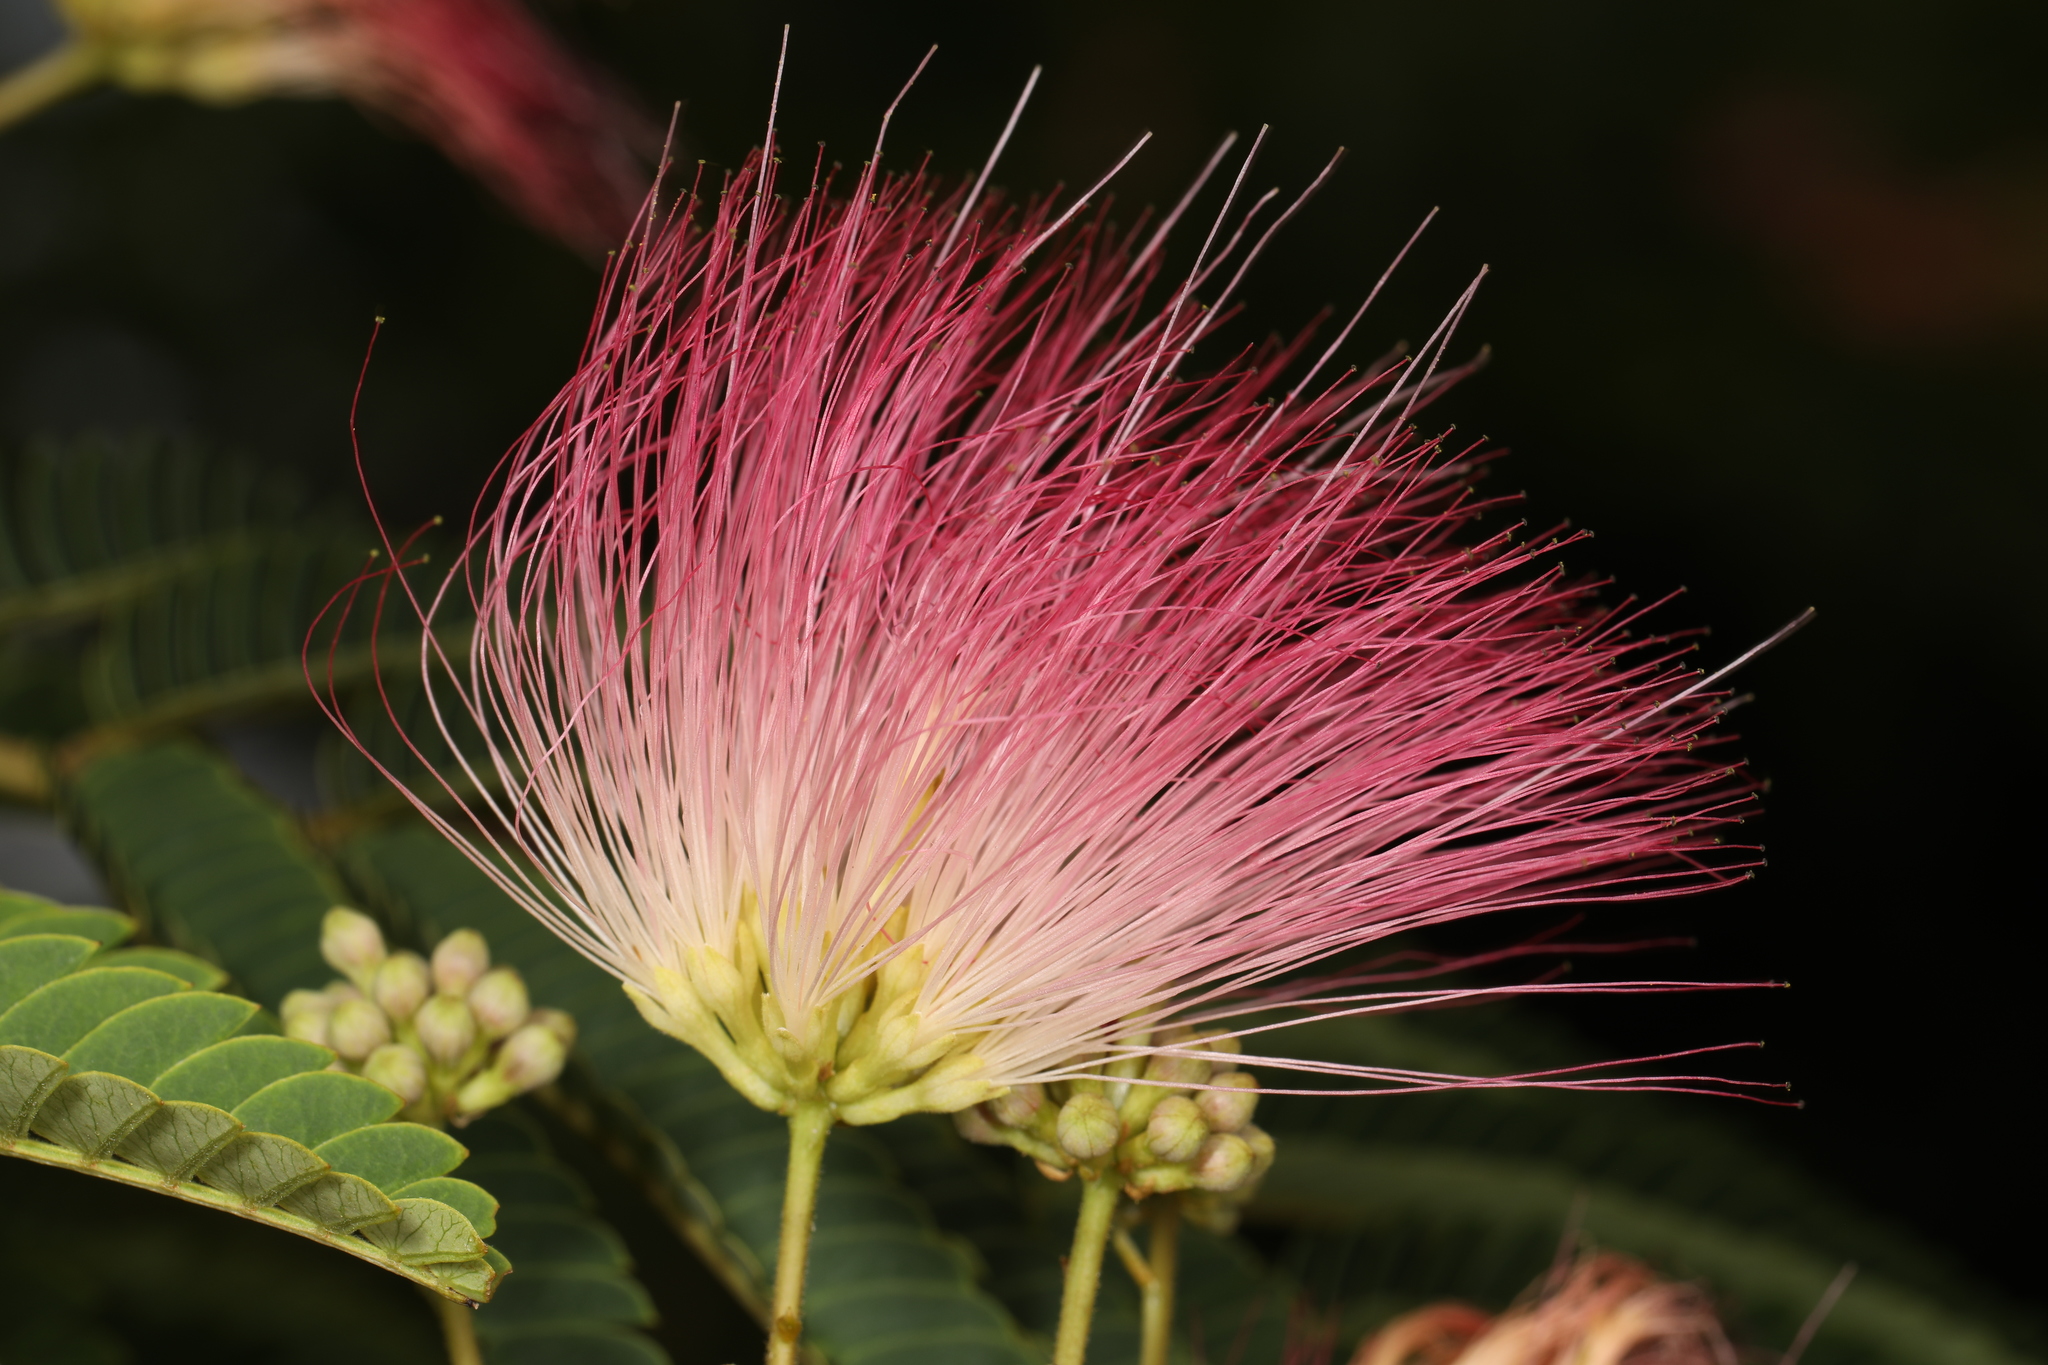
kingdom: Plantae
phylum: Tracheophyta
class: Magnoliopsida
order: Fabales
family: Fabaceae
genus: Albizia
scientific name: Albizia julibrissin
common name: Silktree
